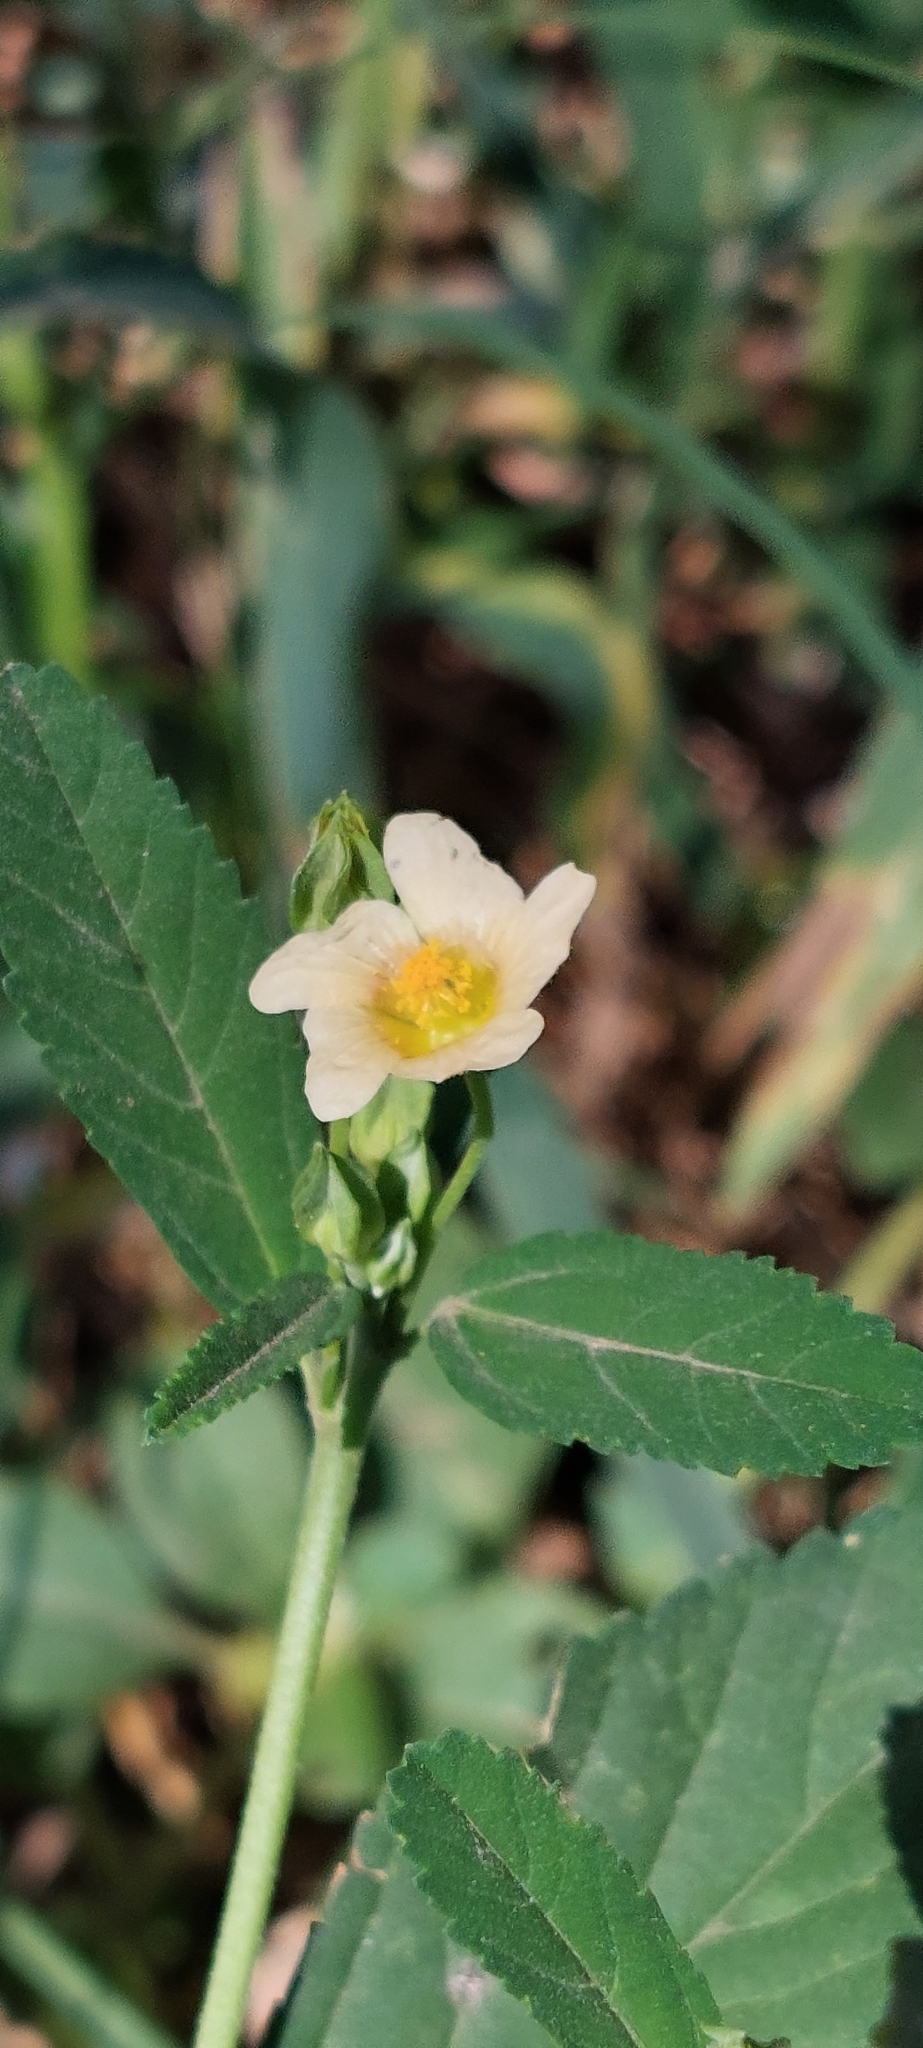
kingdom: Plantae
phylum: Tracheophyta
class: Magnoliopsida
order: Malvales
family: Malvaceae
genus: Sida
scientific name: Sida rhombifolia
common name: Queensland-hemp
